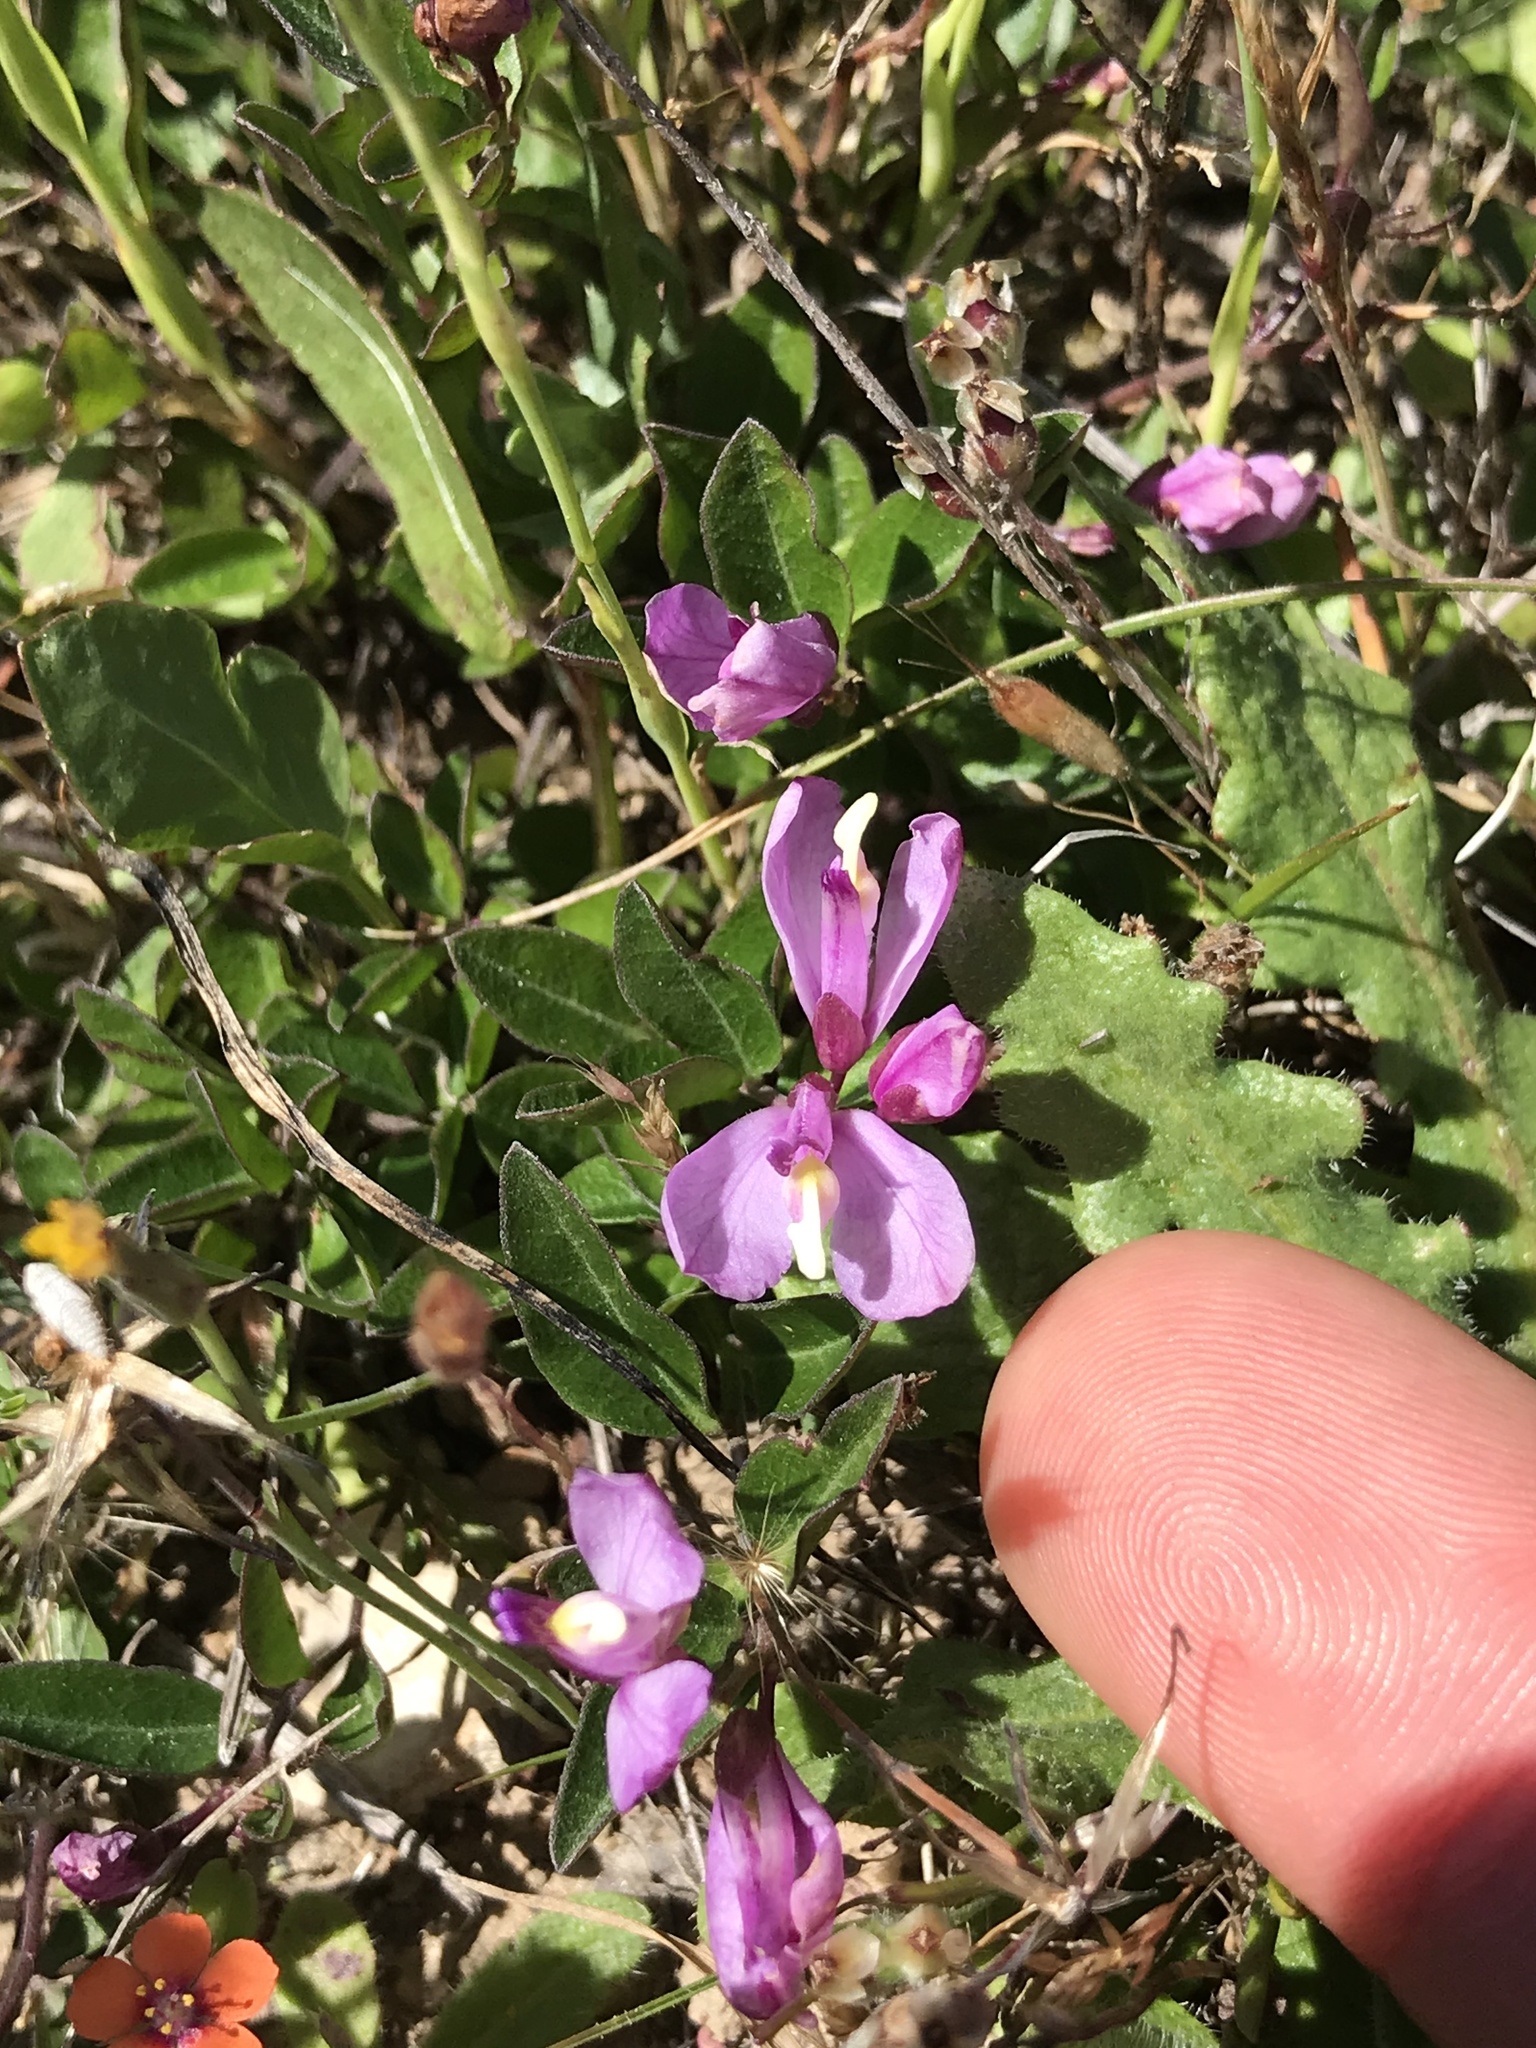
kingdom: Plantae
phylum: Tracheophyta
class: Magnoliopsida
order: Fabales
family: Polygalaceae
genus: Rhinotropis
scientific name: Rhinotropis californica
